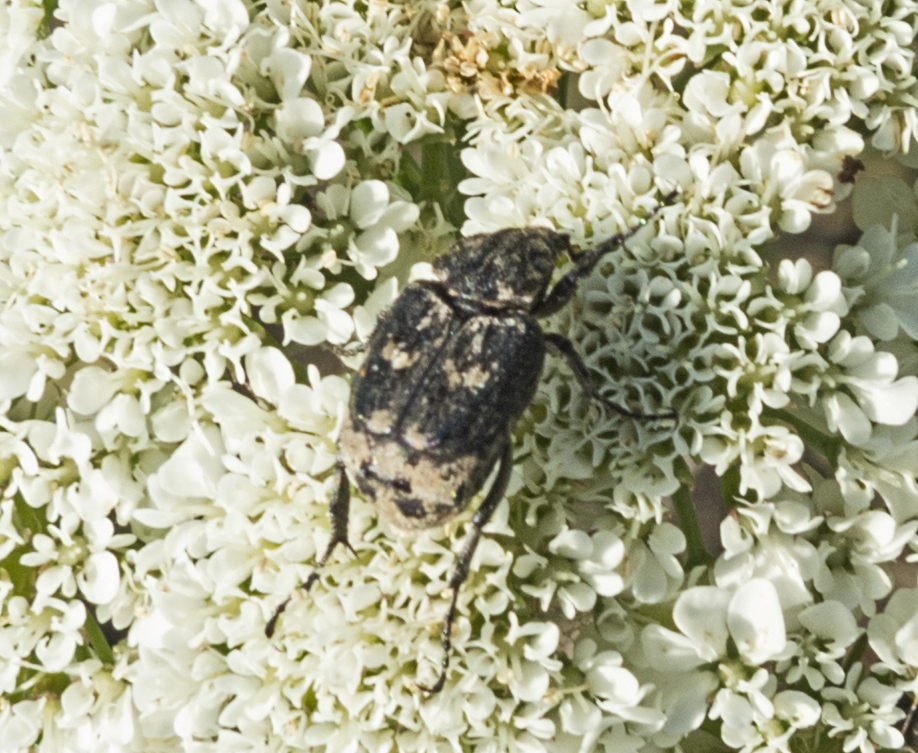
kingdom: Animalia
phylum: Arthropoda
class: Insecta
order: Coleoptera
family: Scarabaeidae
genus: Valgus
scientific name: Valgus hemipterus
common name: Bug flower chafer
